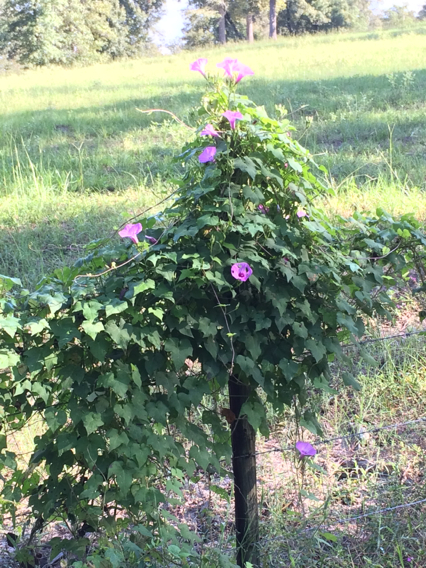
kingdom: Plantae
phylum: Tracheophyta
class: Magnoliopsida
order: Solanales
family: Convolvulaceae
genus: Ipomoea
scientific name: Ipomoea cordatotriloba
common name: Cotton morning glory
